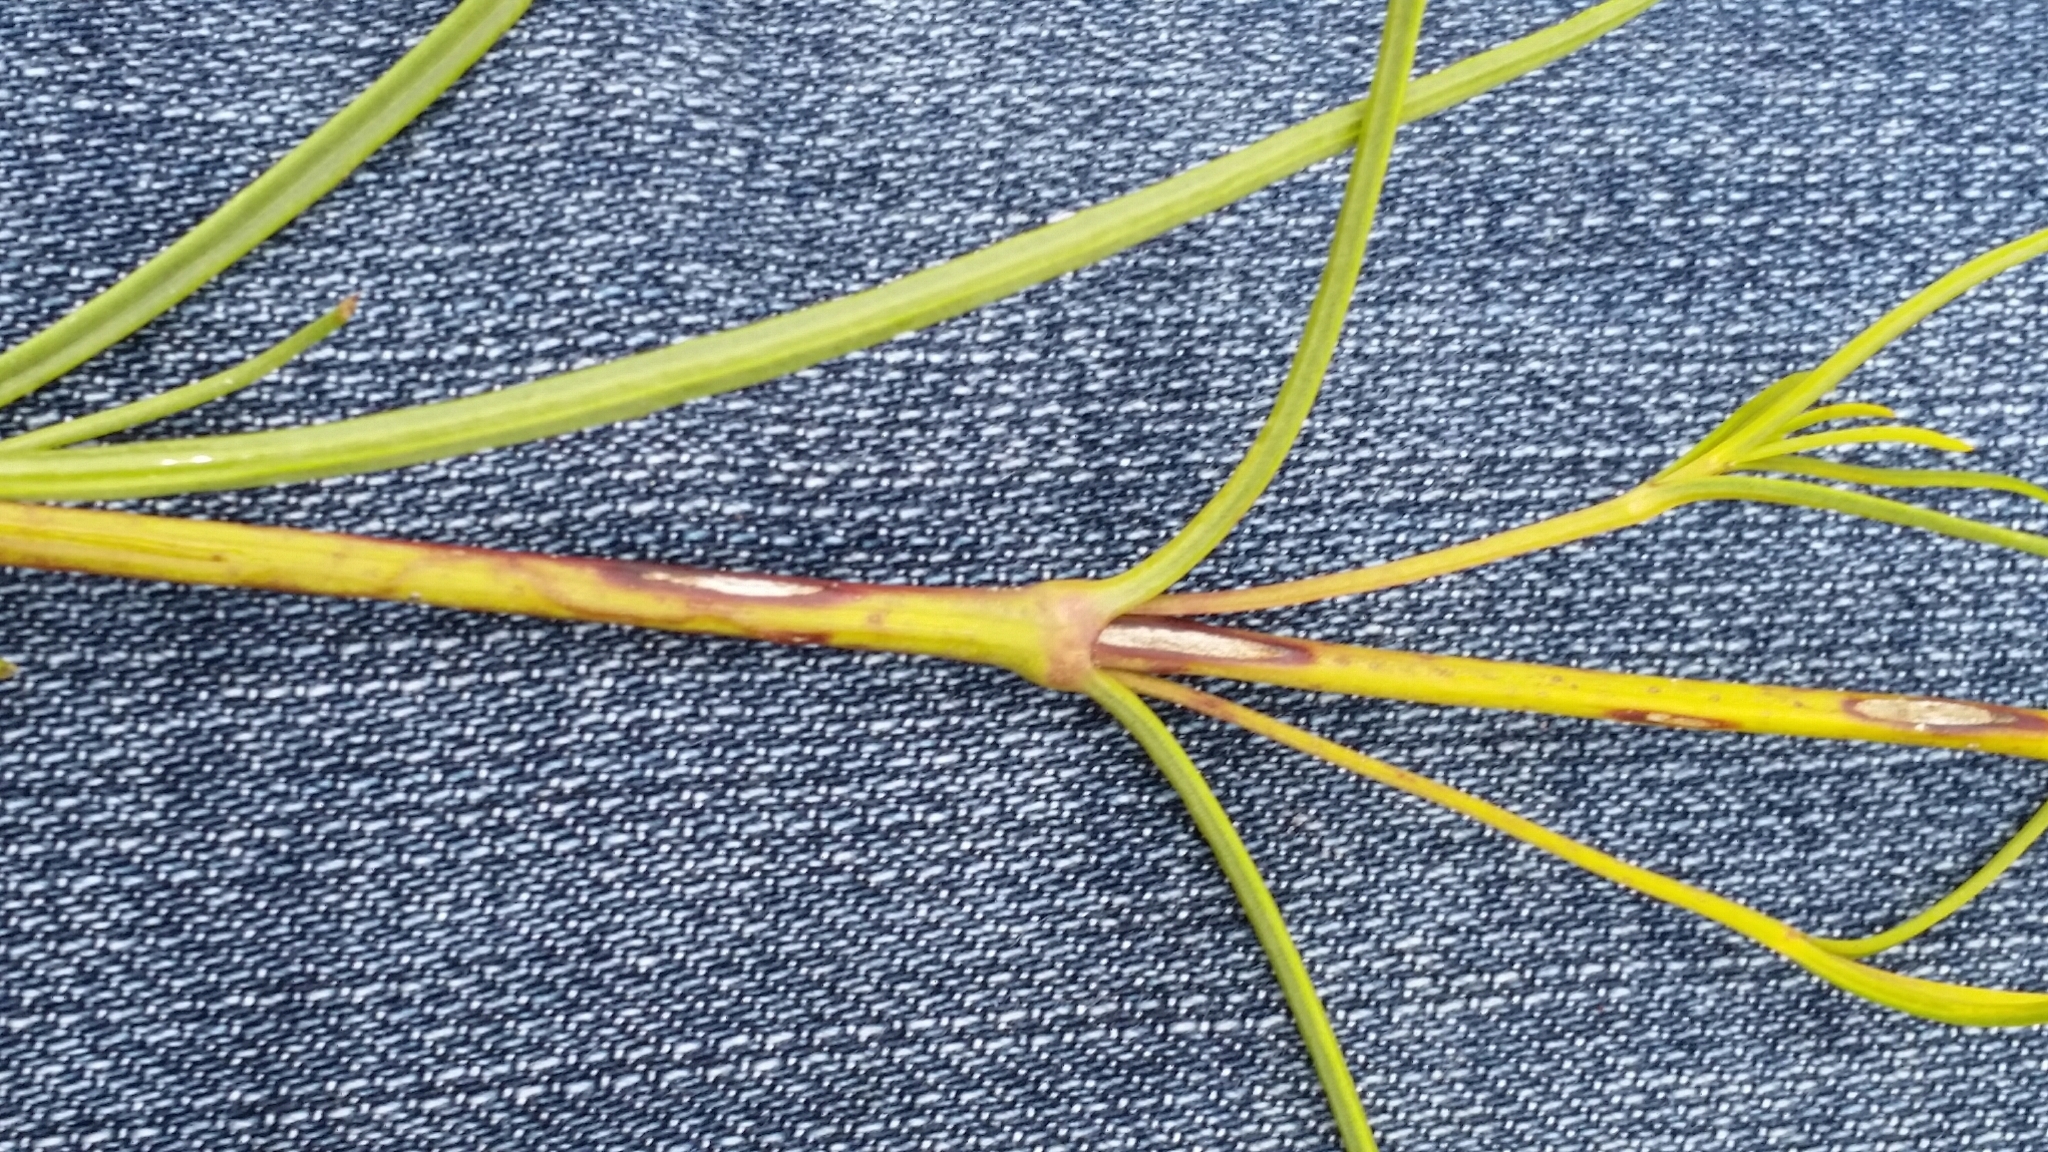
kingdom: Plantae
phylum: Tracheophyta
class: Magnoliopsida
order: Asterales
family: Asteraceae
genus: Flaveria
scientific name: Flaveria linearis
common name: Yellowtop
